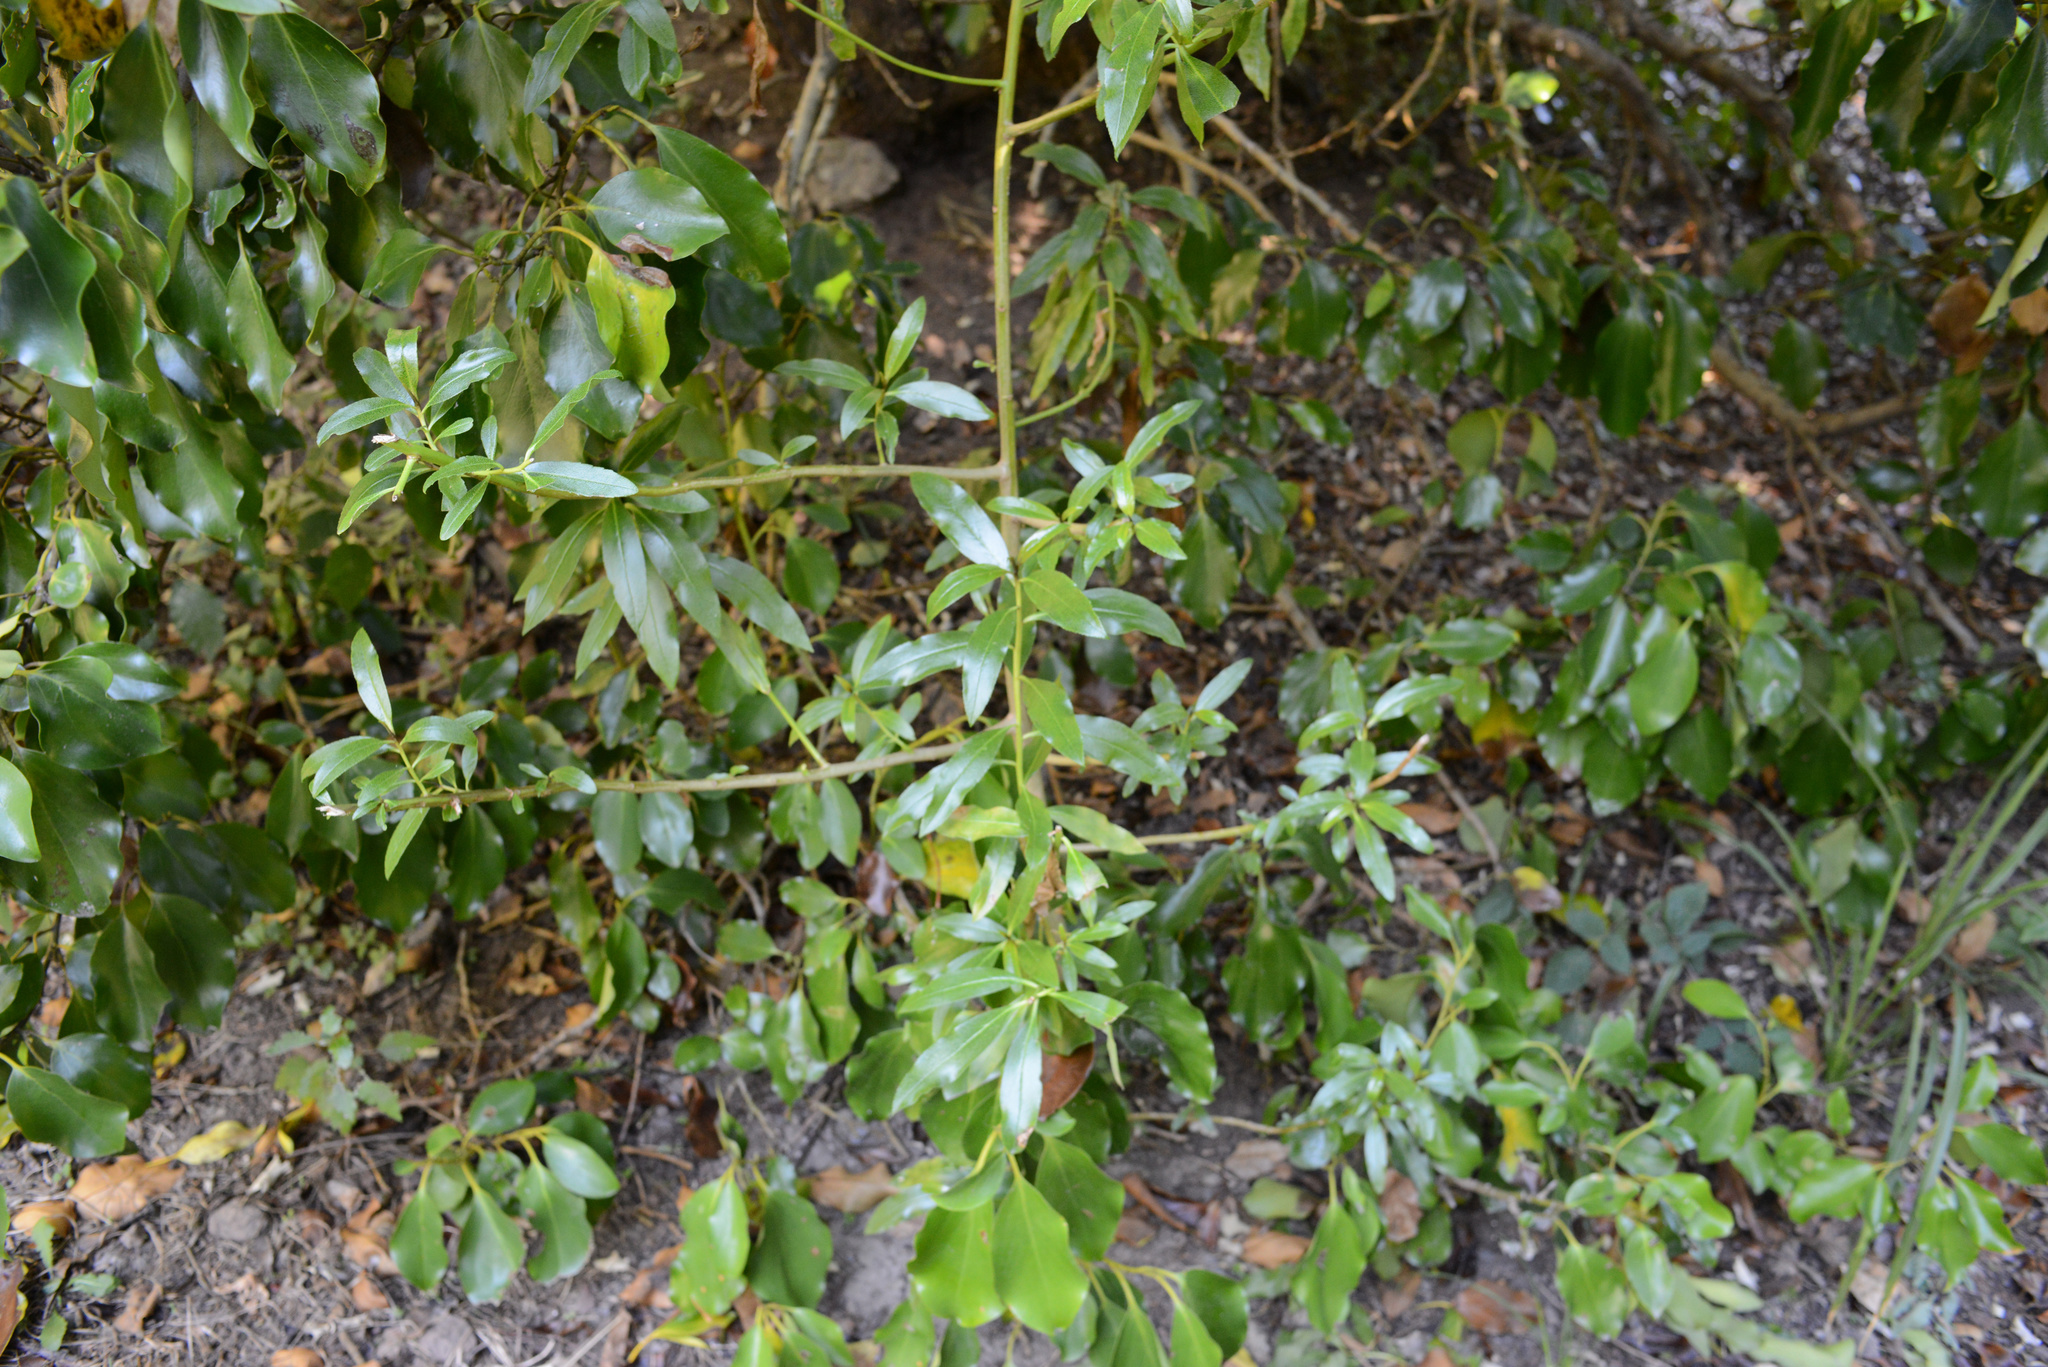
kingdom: Plantae
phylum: Tracheophyta
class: Magnoliopsida
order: Lamiales
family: Scrophulariaceae
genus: Myoporum
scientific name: Myoporum laetum
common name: Ngaio tree
